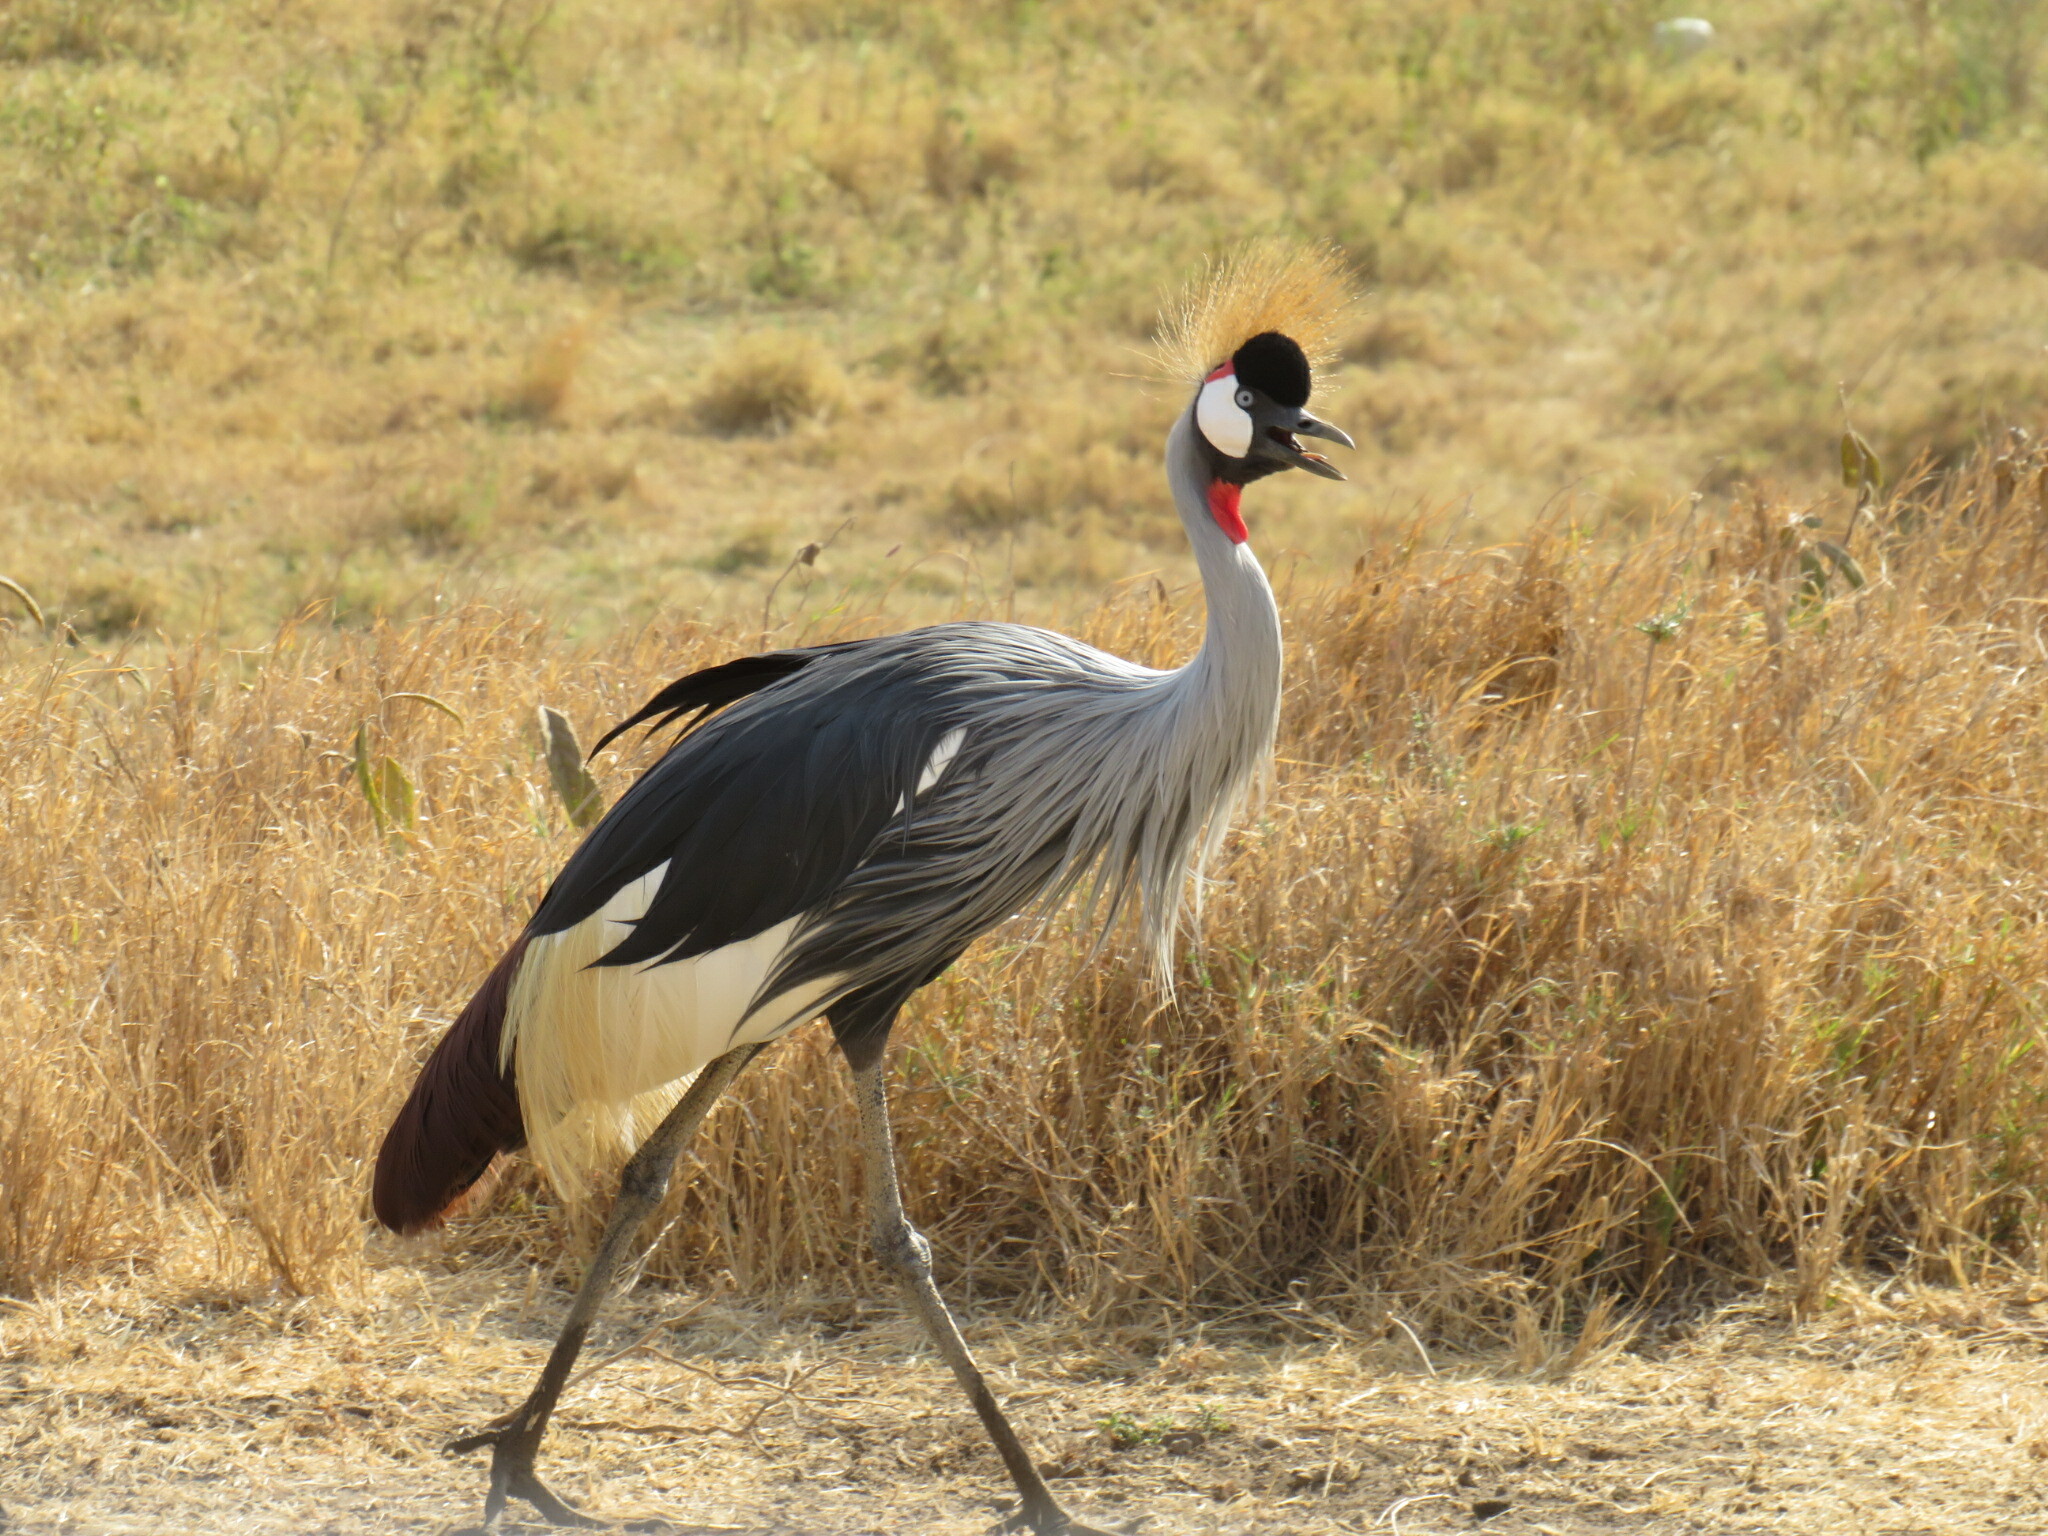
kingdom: Animalia
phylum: Chordata
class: Aves
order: Gruiformes
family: Gruidae
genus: Balearica
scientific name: Balearica regulorum
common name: Grey crowned crane
